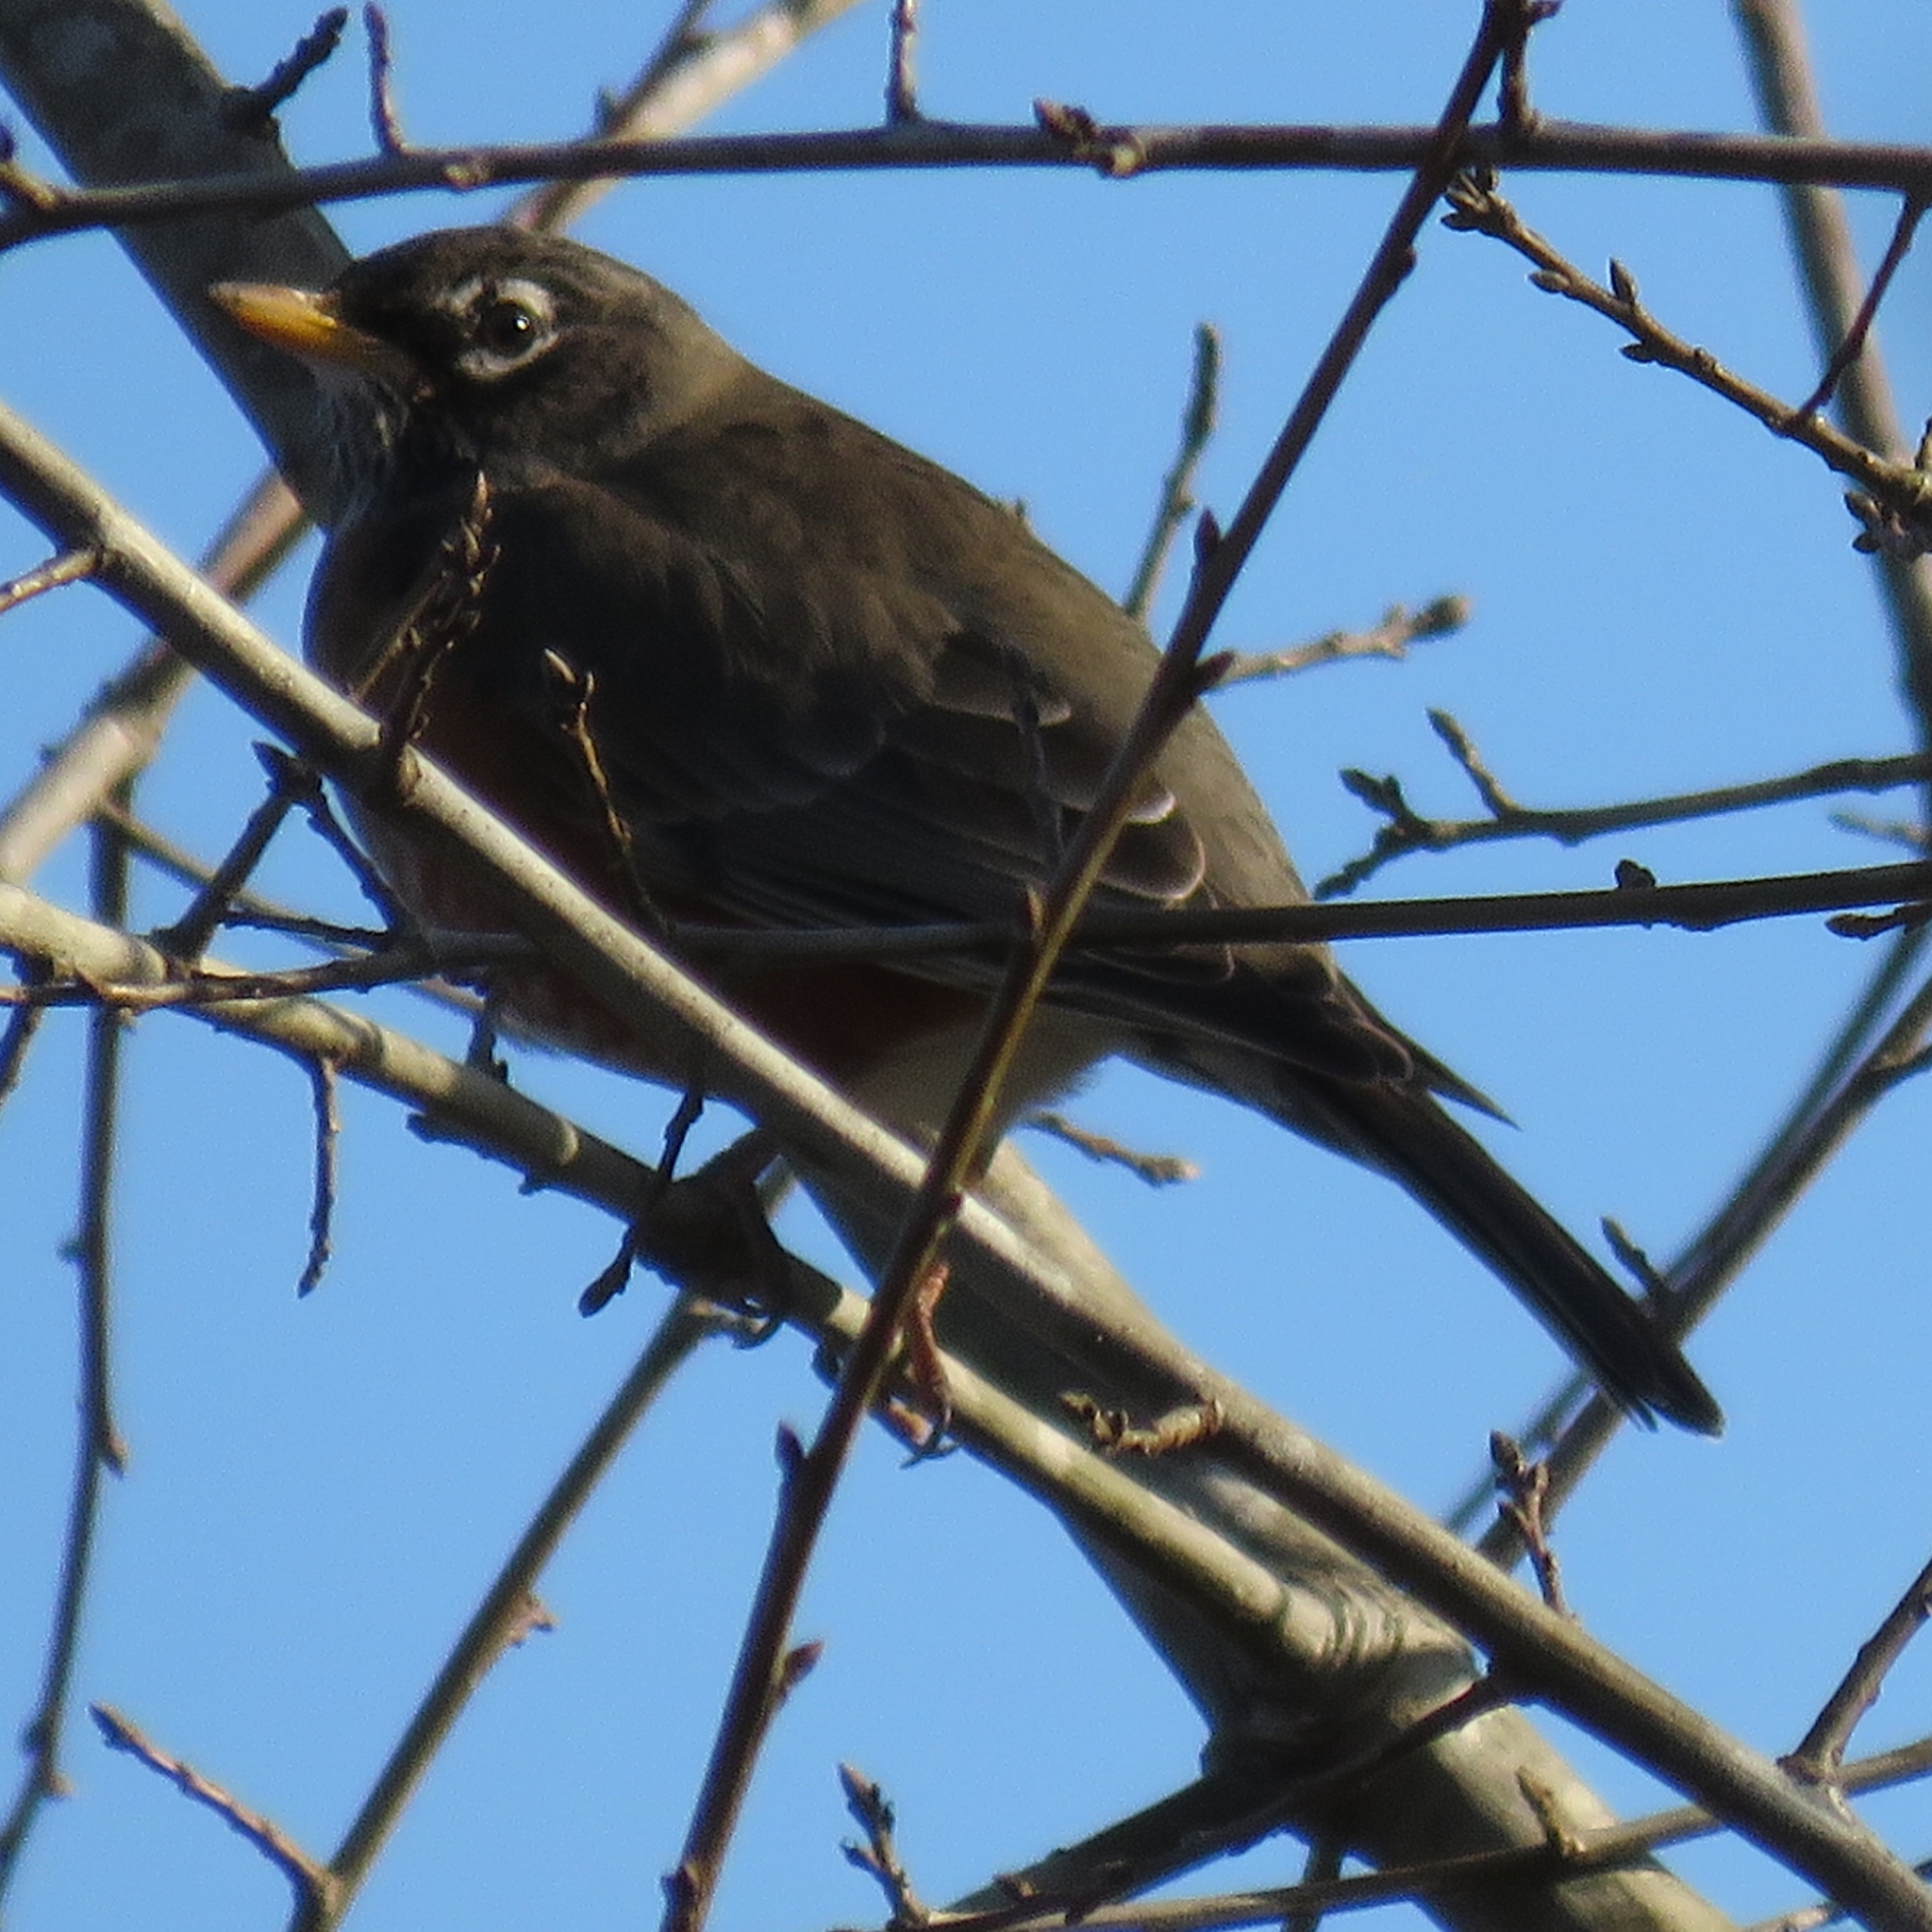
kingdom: Animalia
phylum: Chordata
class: Aves
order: Passeriformes
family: Turdidae
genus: Turdus
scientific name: Turdus migratorius
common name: American robin
